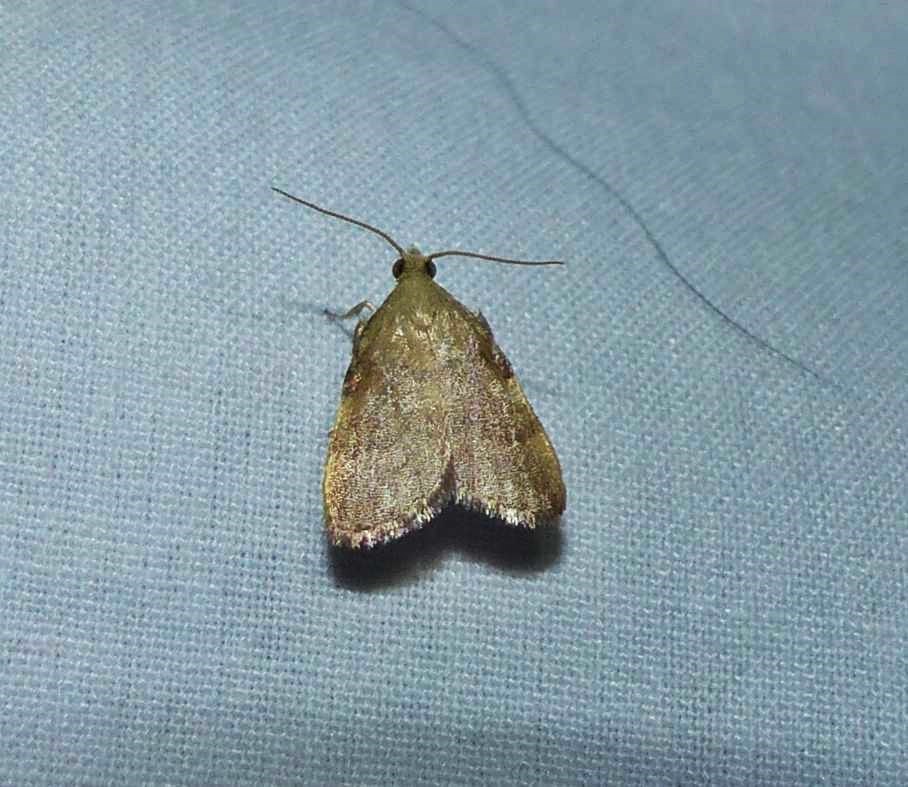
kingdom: Animalia
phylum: Arthropoda
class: Insecta
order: Lepidoptera
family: Pyralidae
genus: Condylolomia
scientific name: Condylolomia participialis
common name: Drab condylolomia moth
